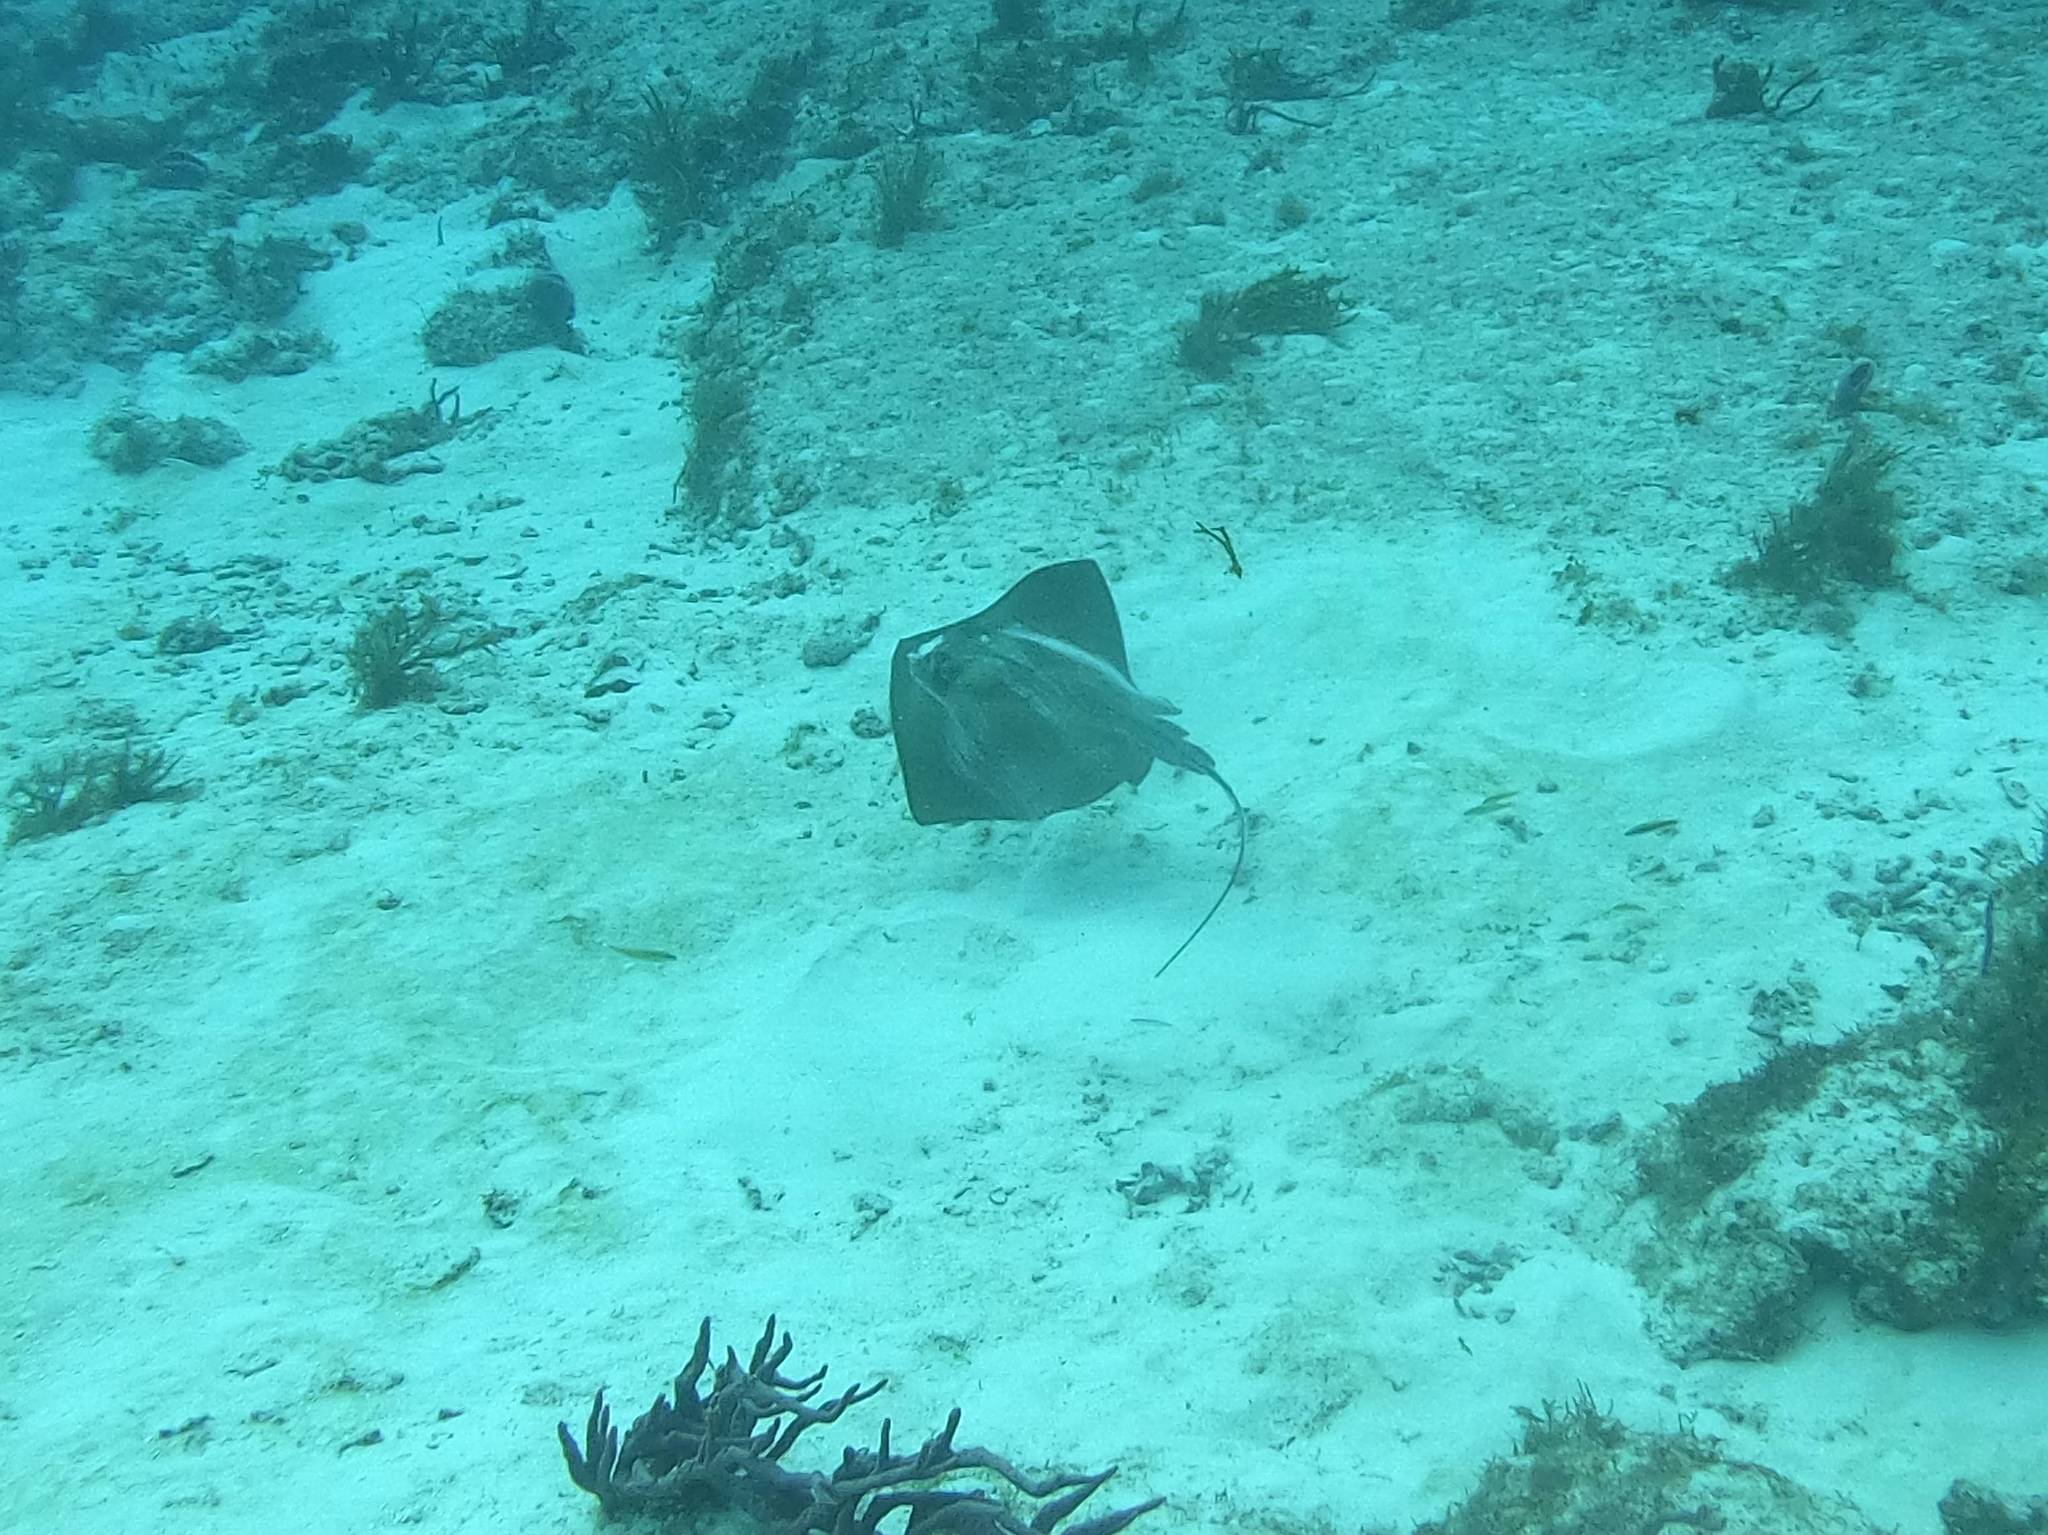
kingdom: Animalia
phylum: Chordata
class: Elasmobranchii
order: Myliobatiformes
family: Dasyatidae
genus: Hypanus
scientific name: Hypanus americanus
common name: Southern stingray
